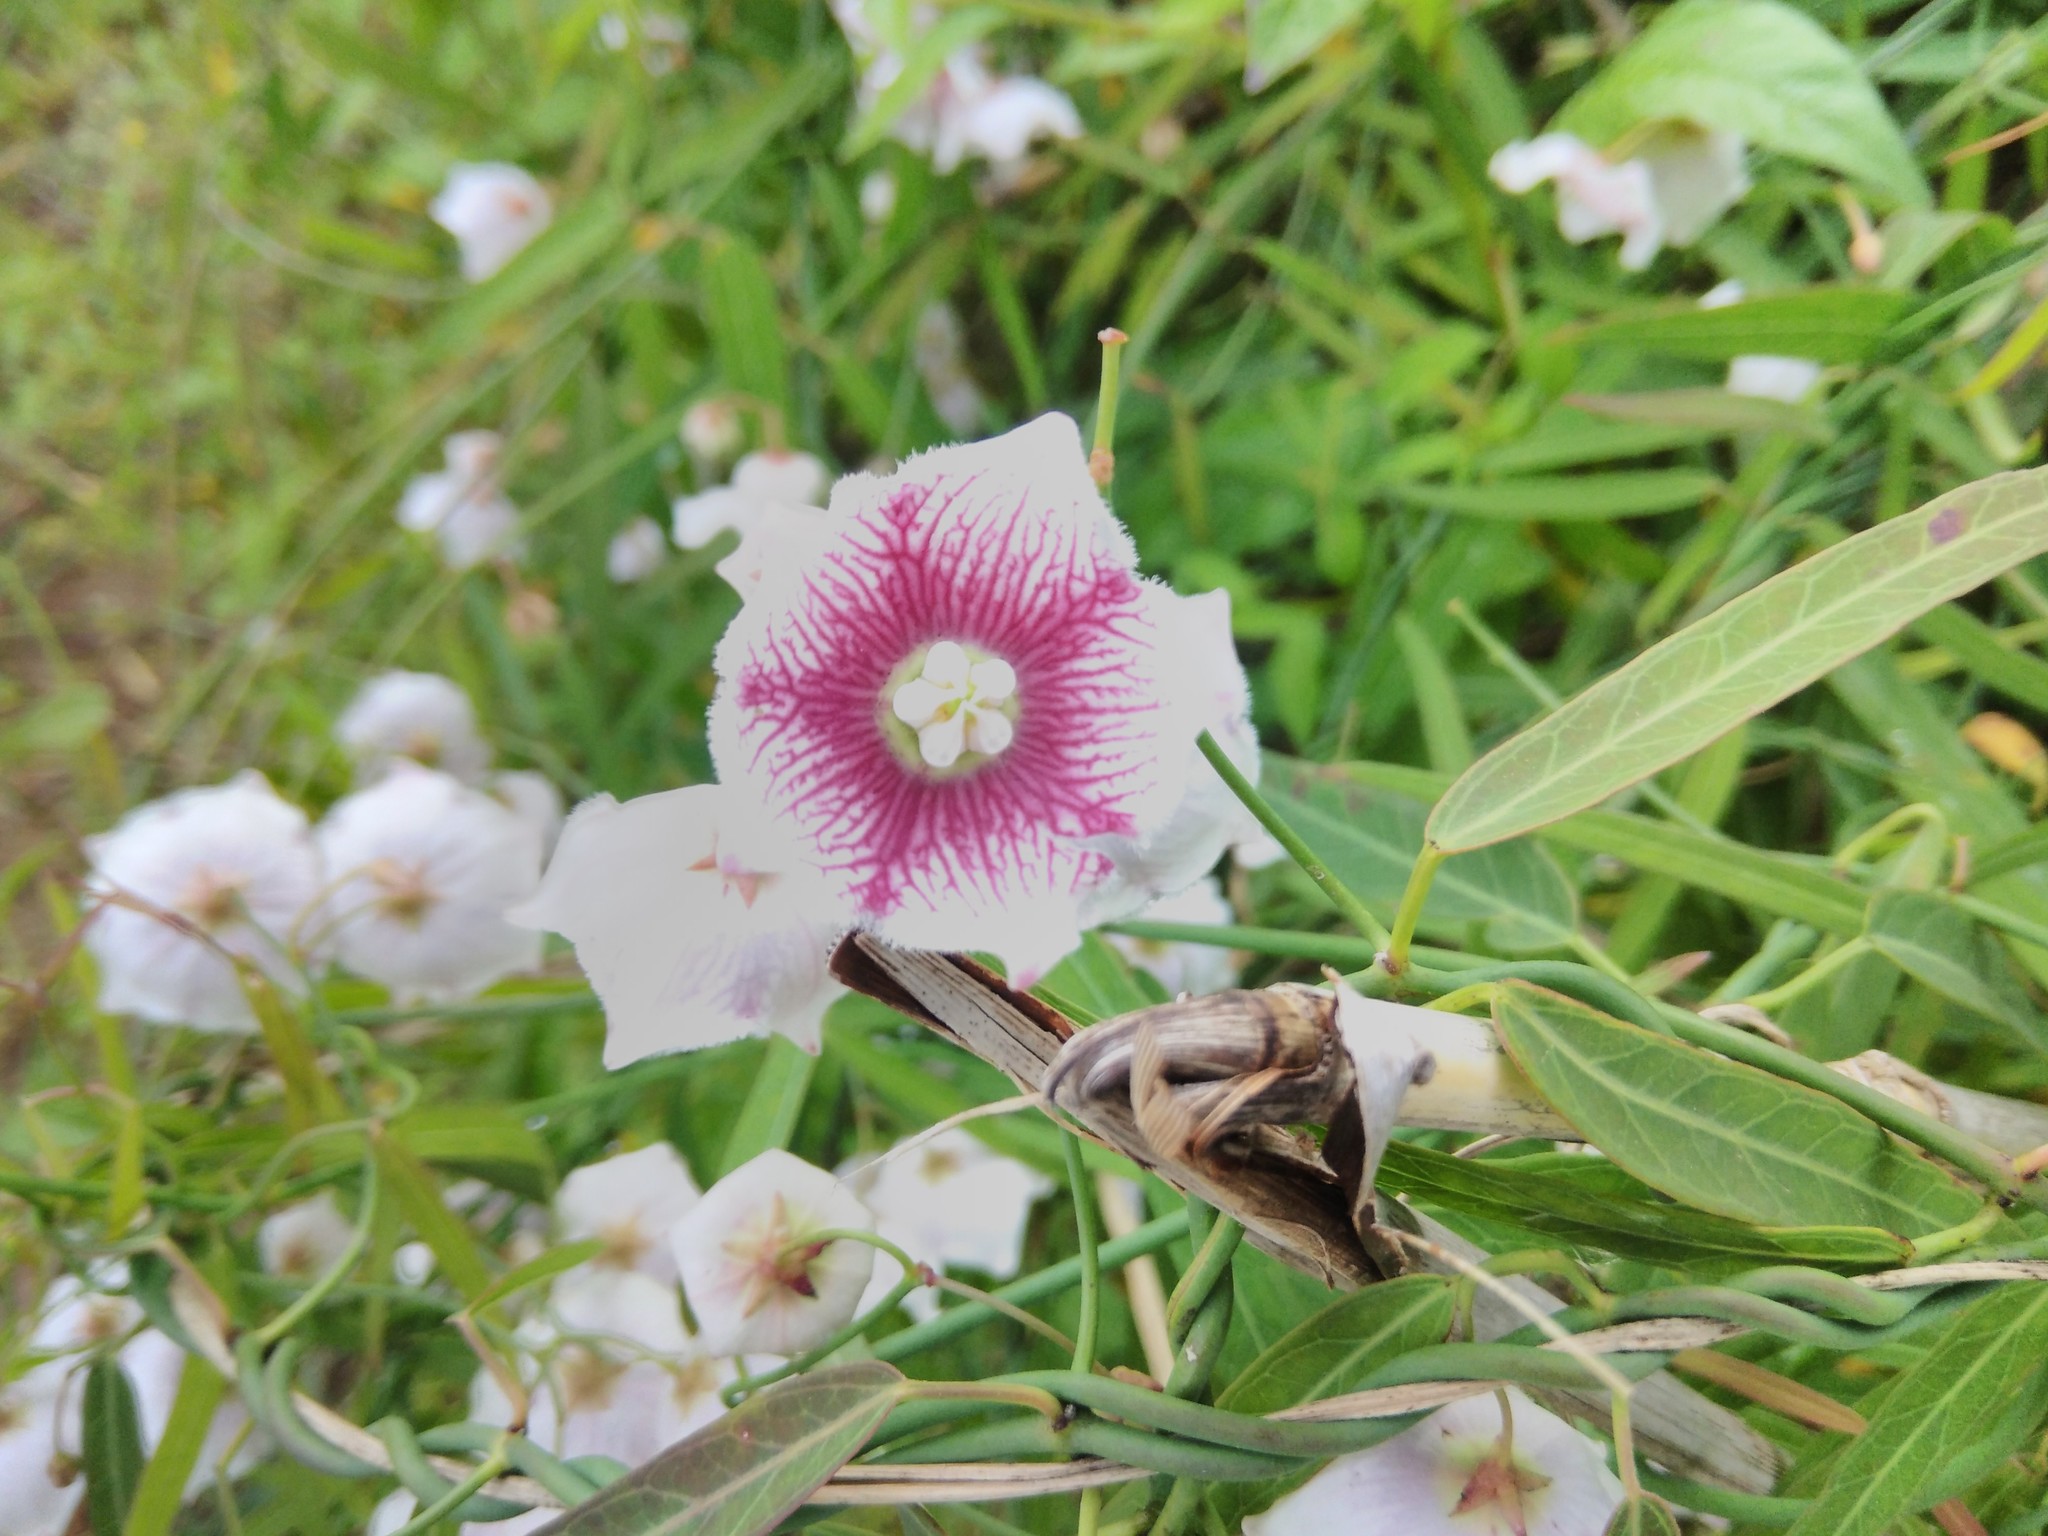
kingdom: Plantae
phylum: Tracheophyta
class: Magnoliopsida
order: Gentianales
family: Apocynaceae
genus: Oxystelma
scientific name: Oxystelma wallichii
